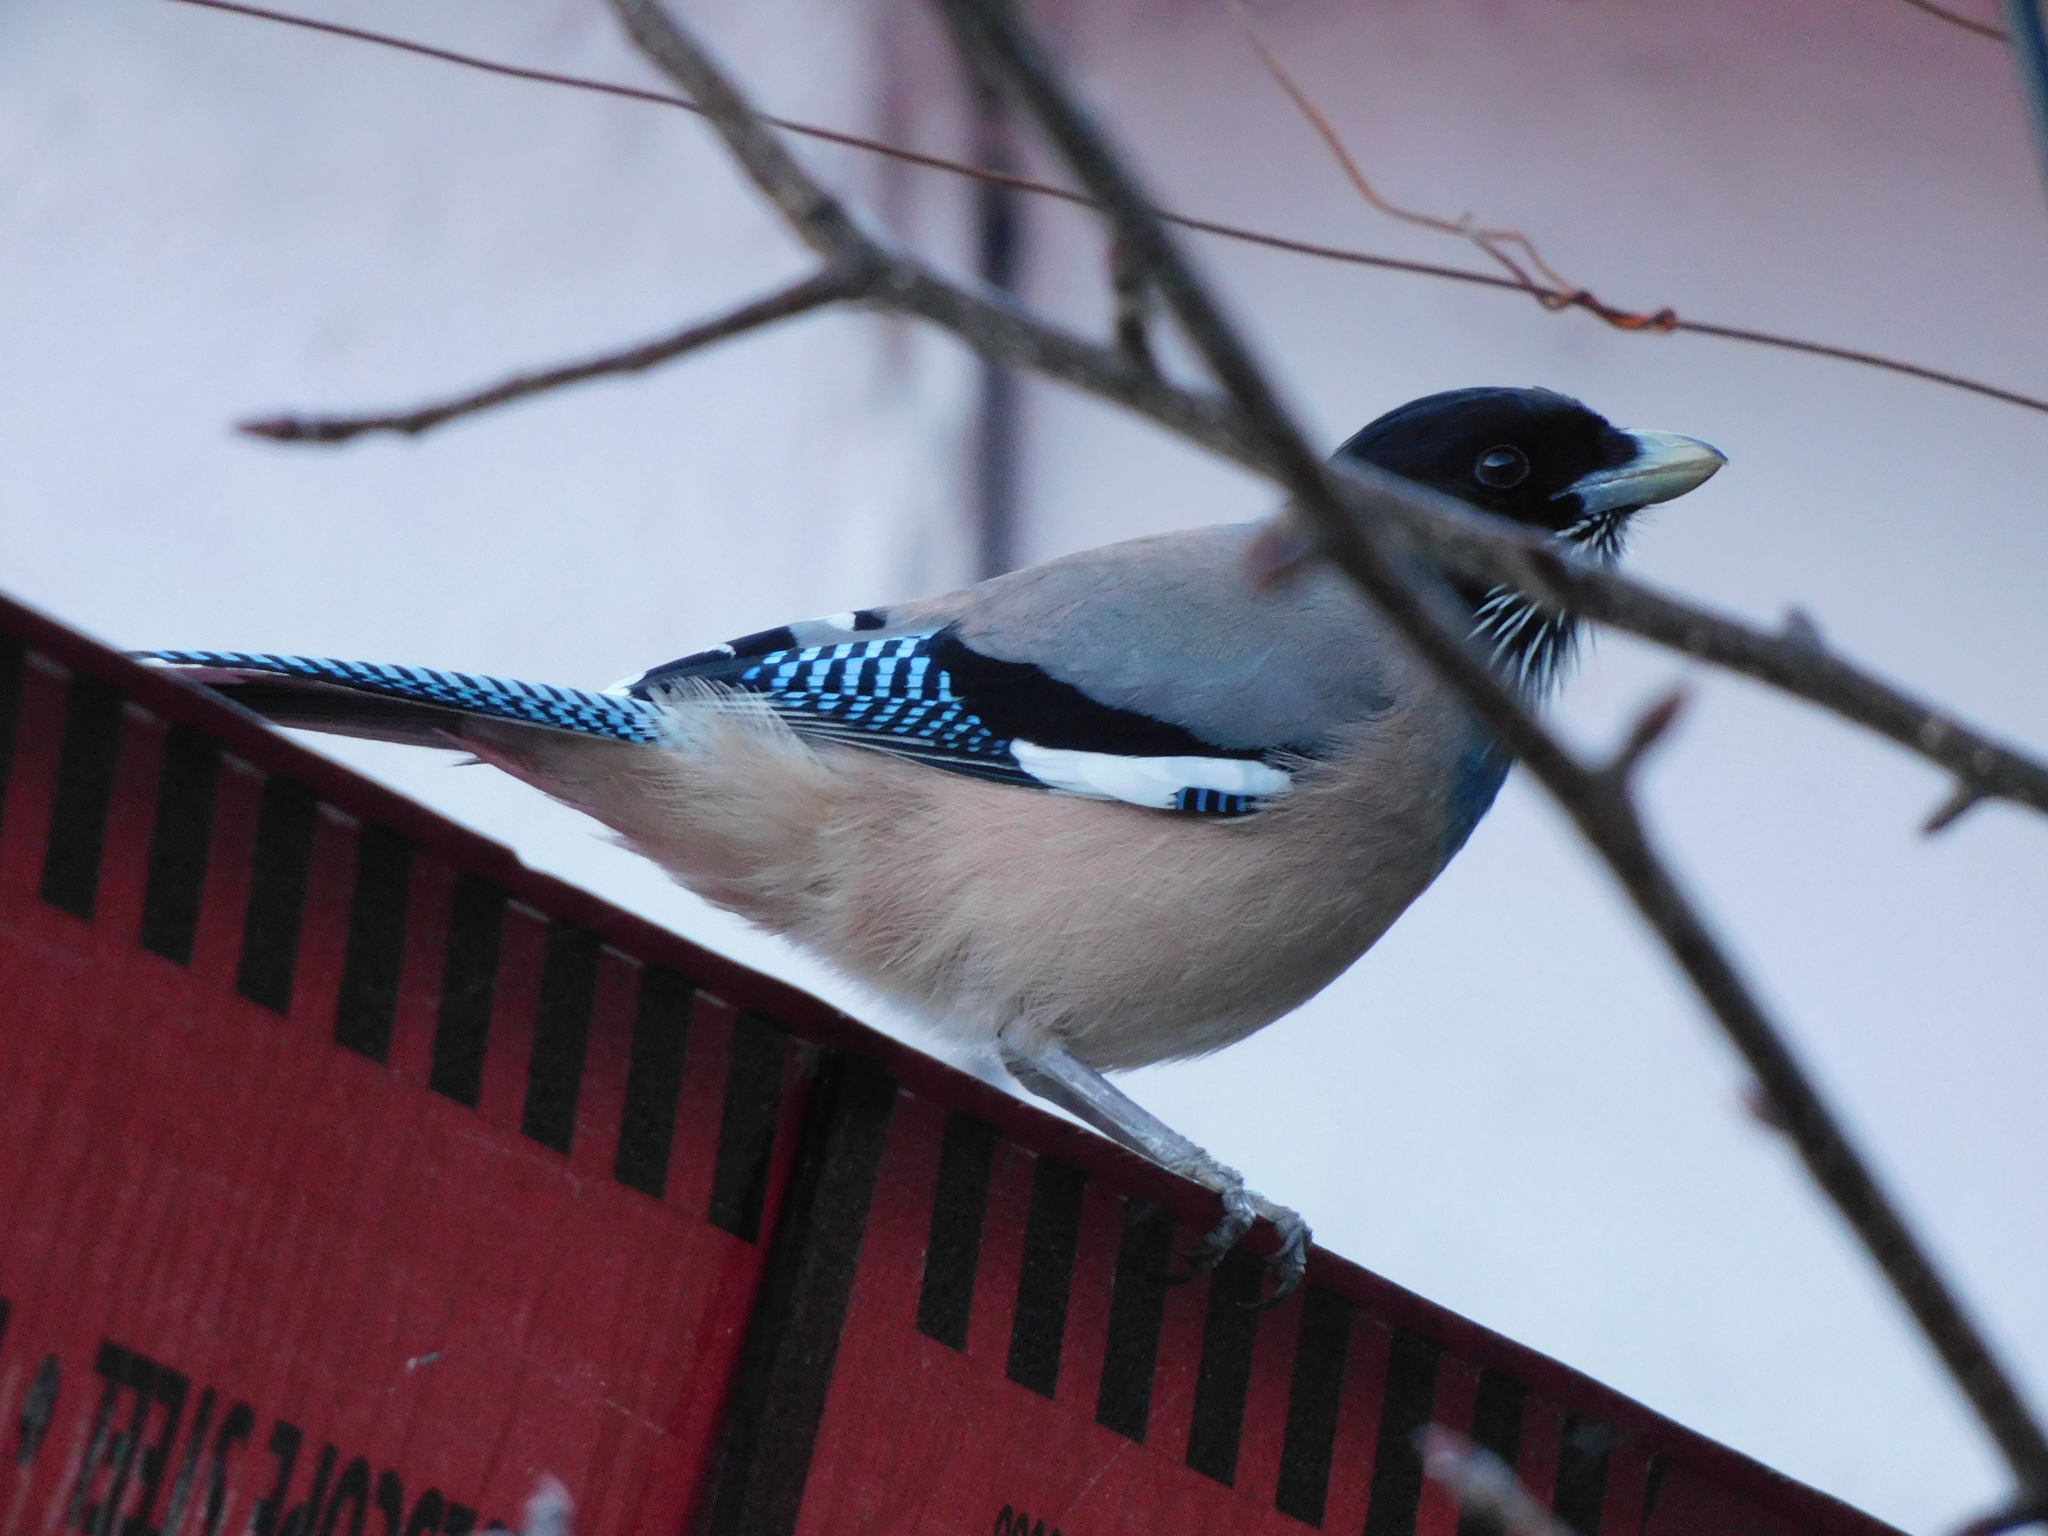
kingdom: Animalia
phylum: Chordata
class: Aves
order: Passeriformes
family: Corvidae
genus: Garrulus
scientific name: Garrulus lanceolatus
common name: Black-headed jay
